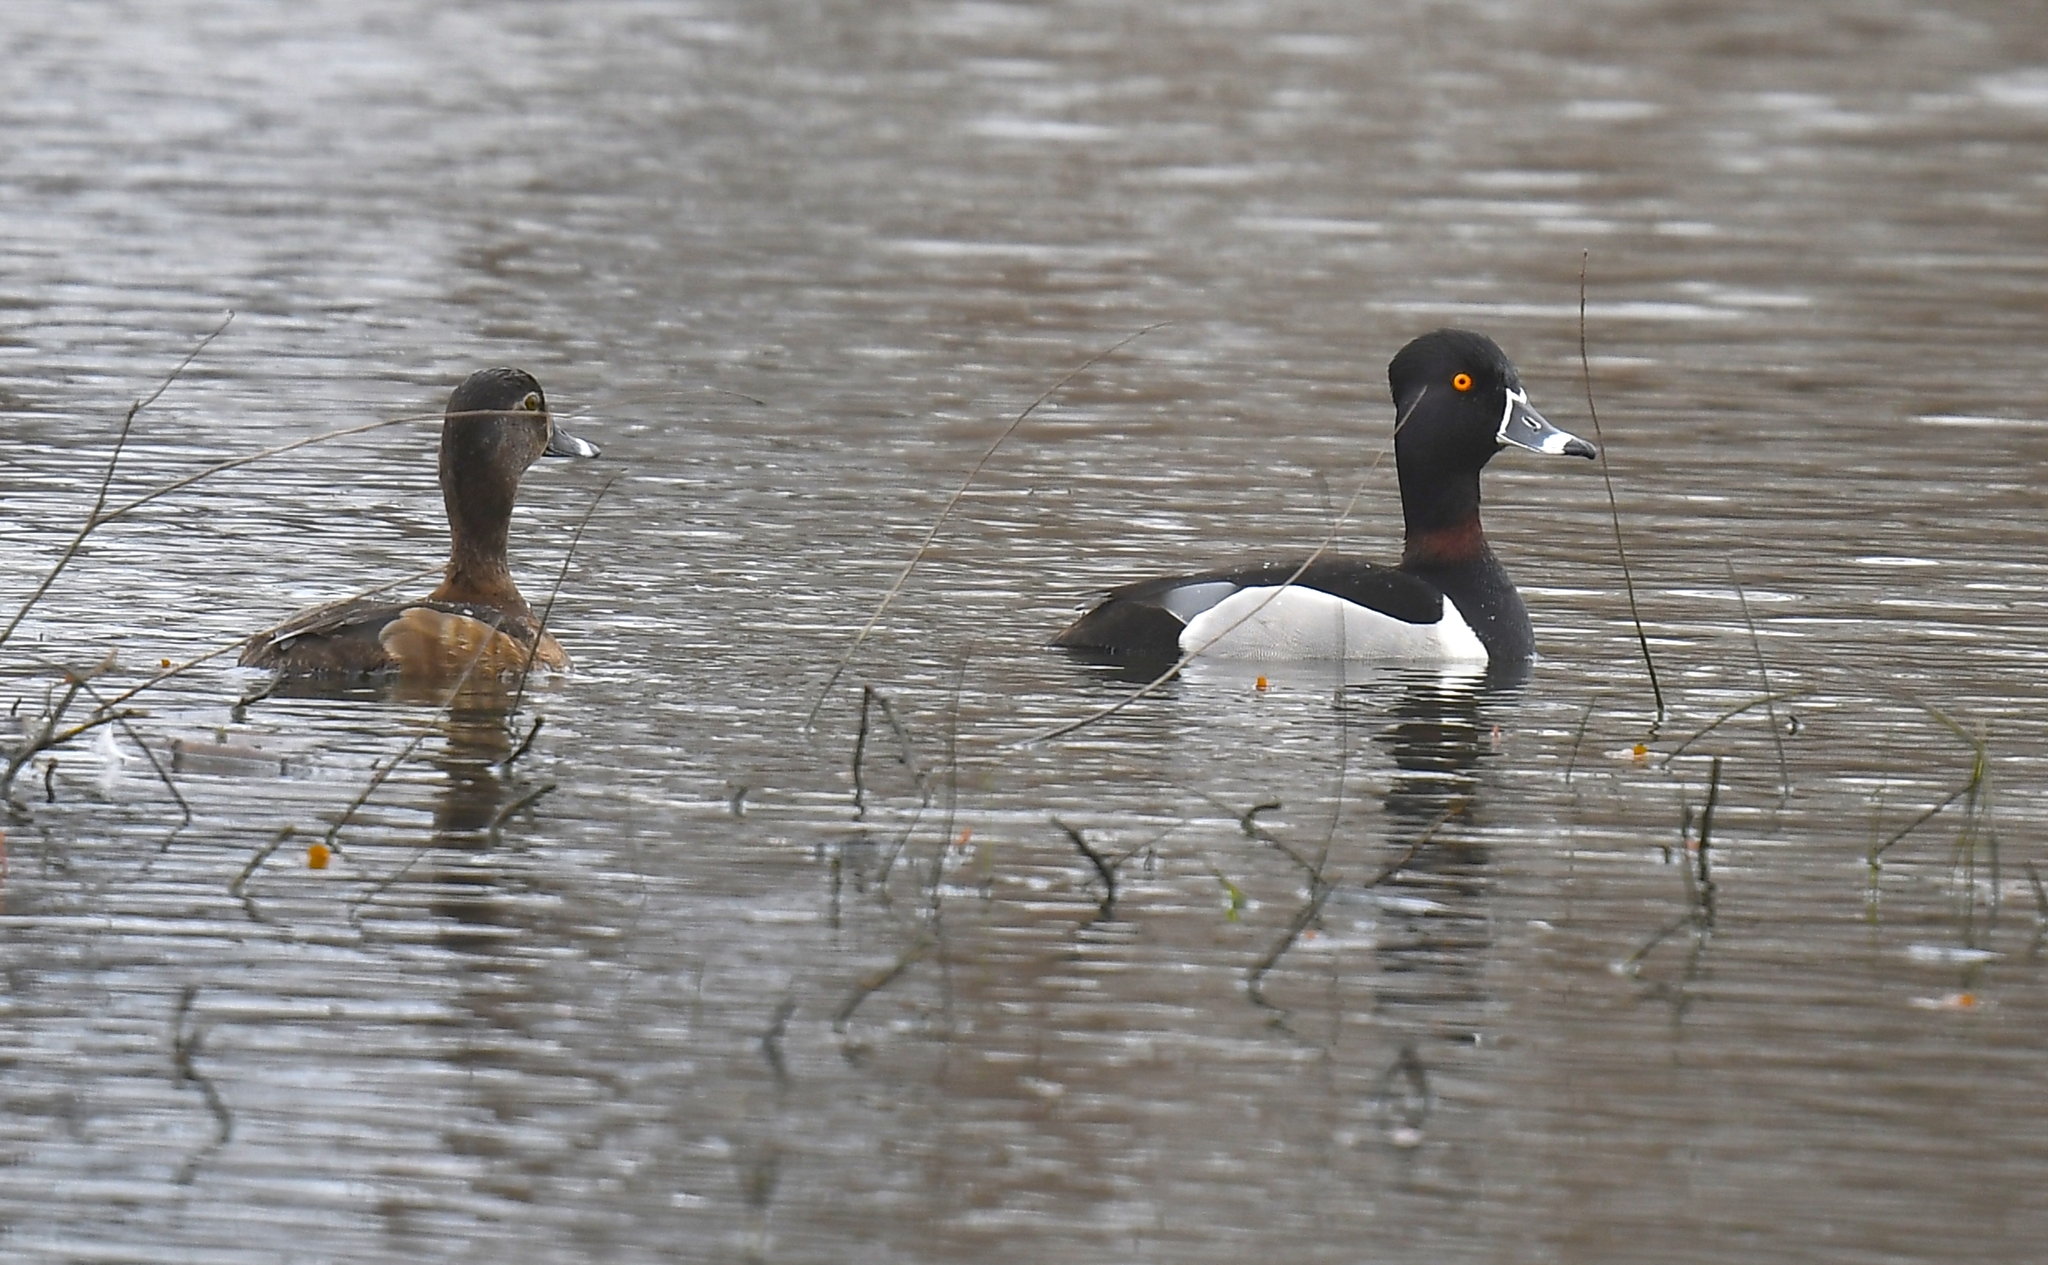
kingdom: Animalia
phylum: Chordata
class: Aves
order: Anseriformes
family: Anatidae
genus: Aythya
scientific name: Aythya collaris
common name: Ring-necked duck
